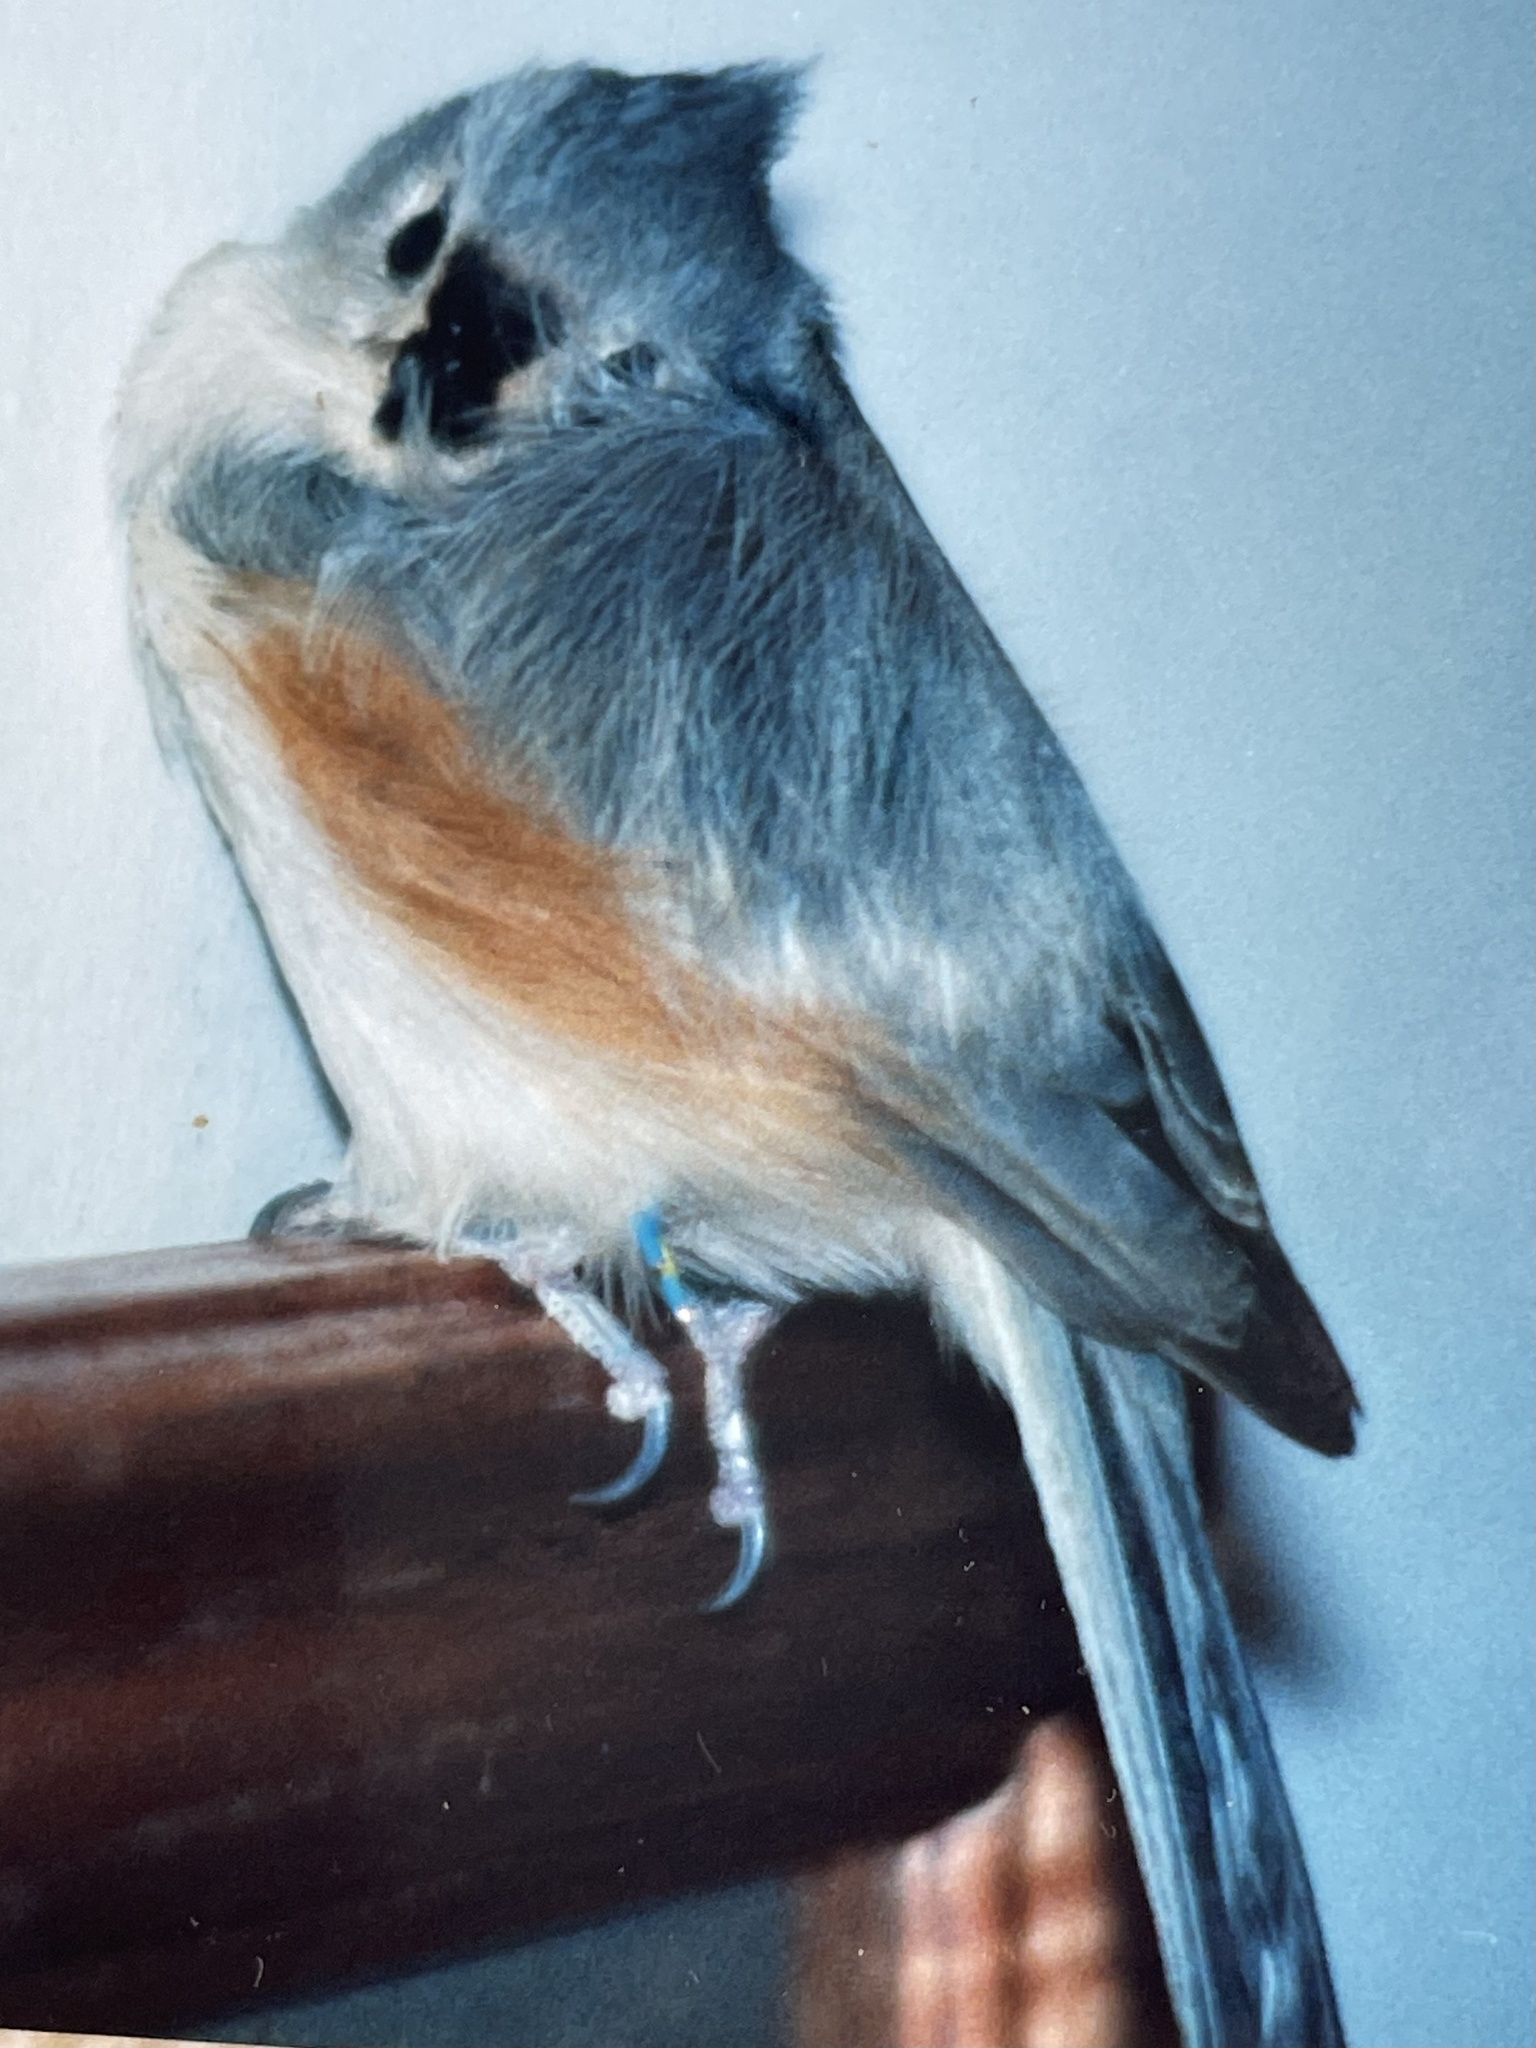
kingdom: Animalia
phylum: Chordata
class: Aves
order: Passeriformes
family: Paridae
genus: Baeolophus
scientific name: Baeolophus bicolor
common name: Tufted titmouse
